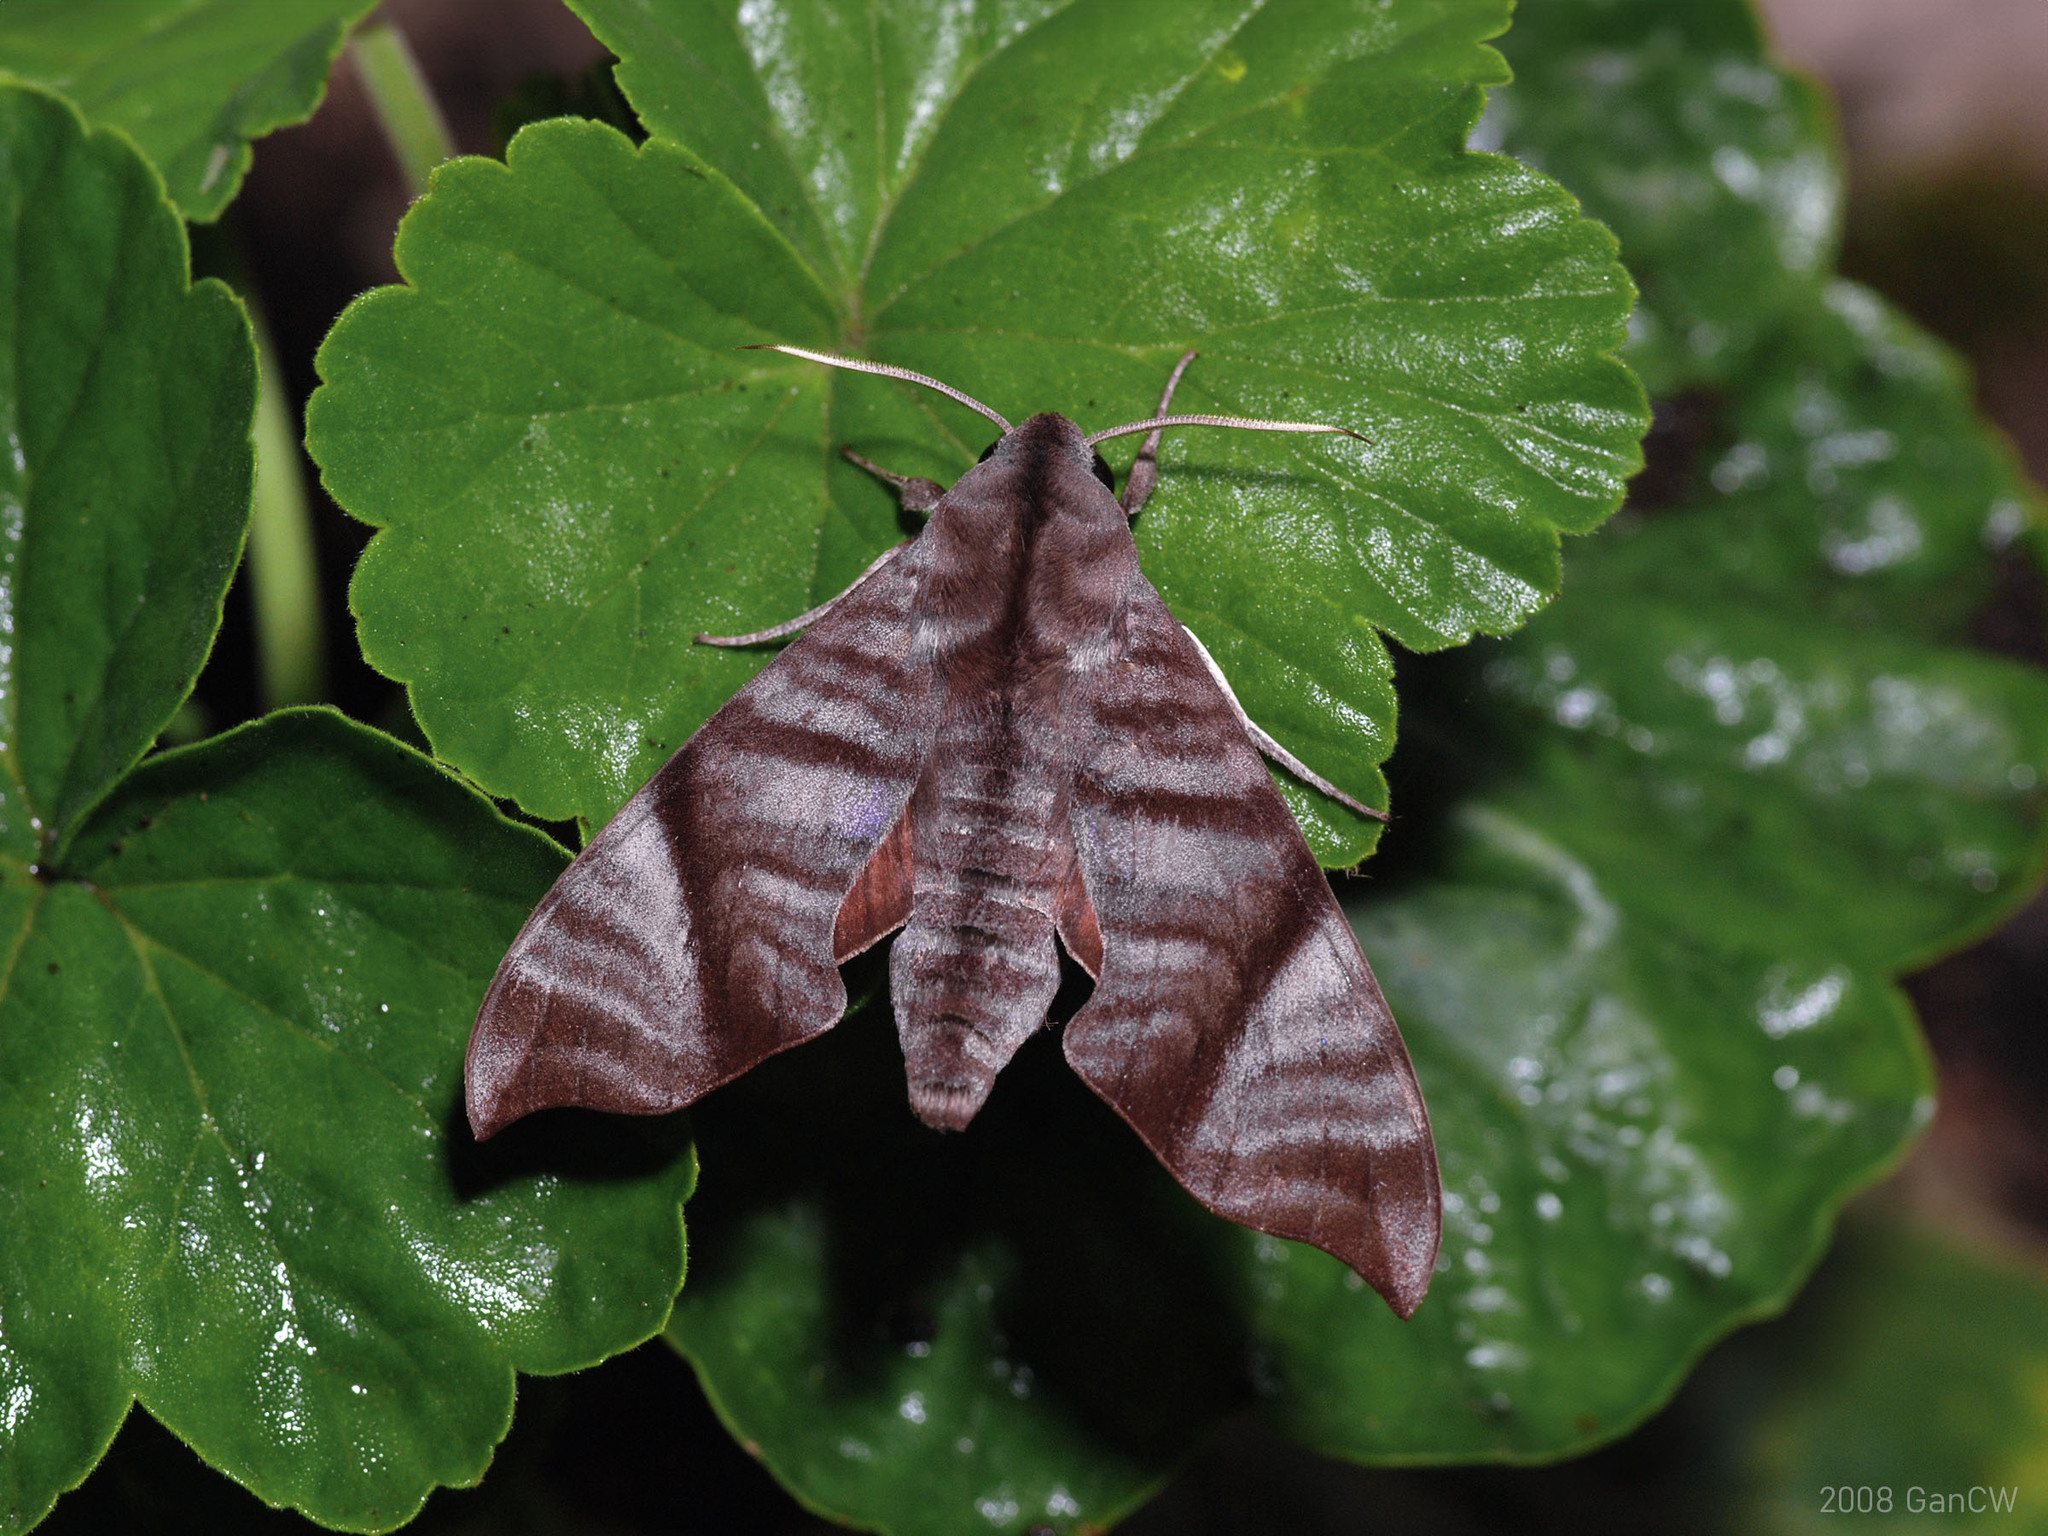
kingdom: Animalia
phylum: Arthropoda
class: Insecta
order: Lepidoptera
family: Sphingidae
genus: Dahira
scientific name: Dahira falcata
